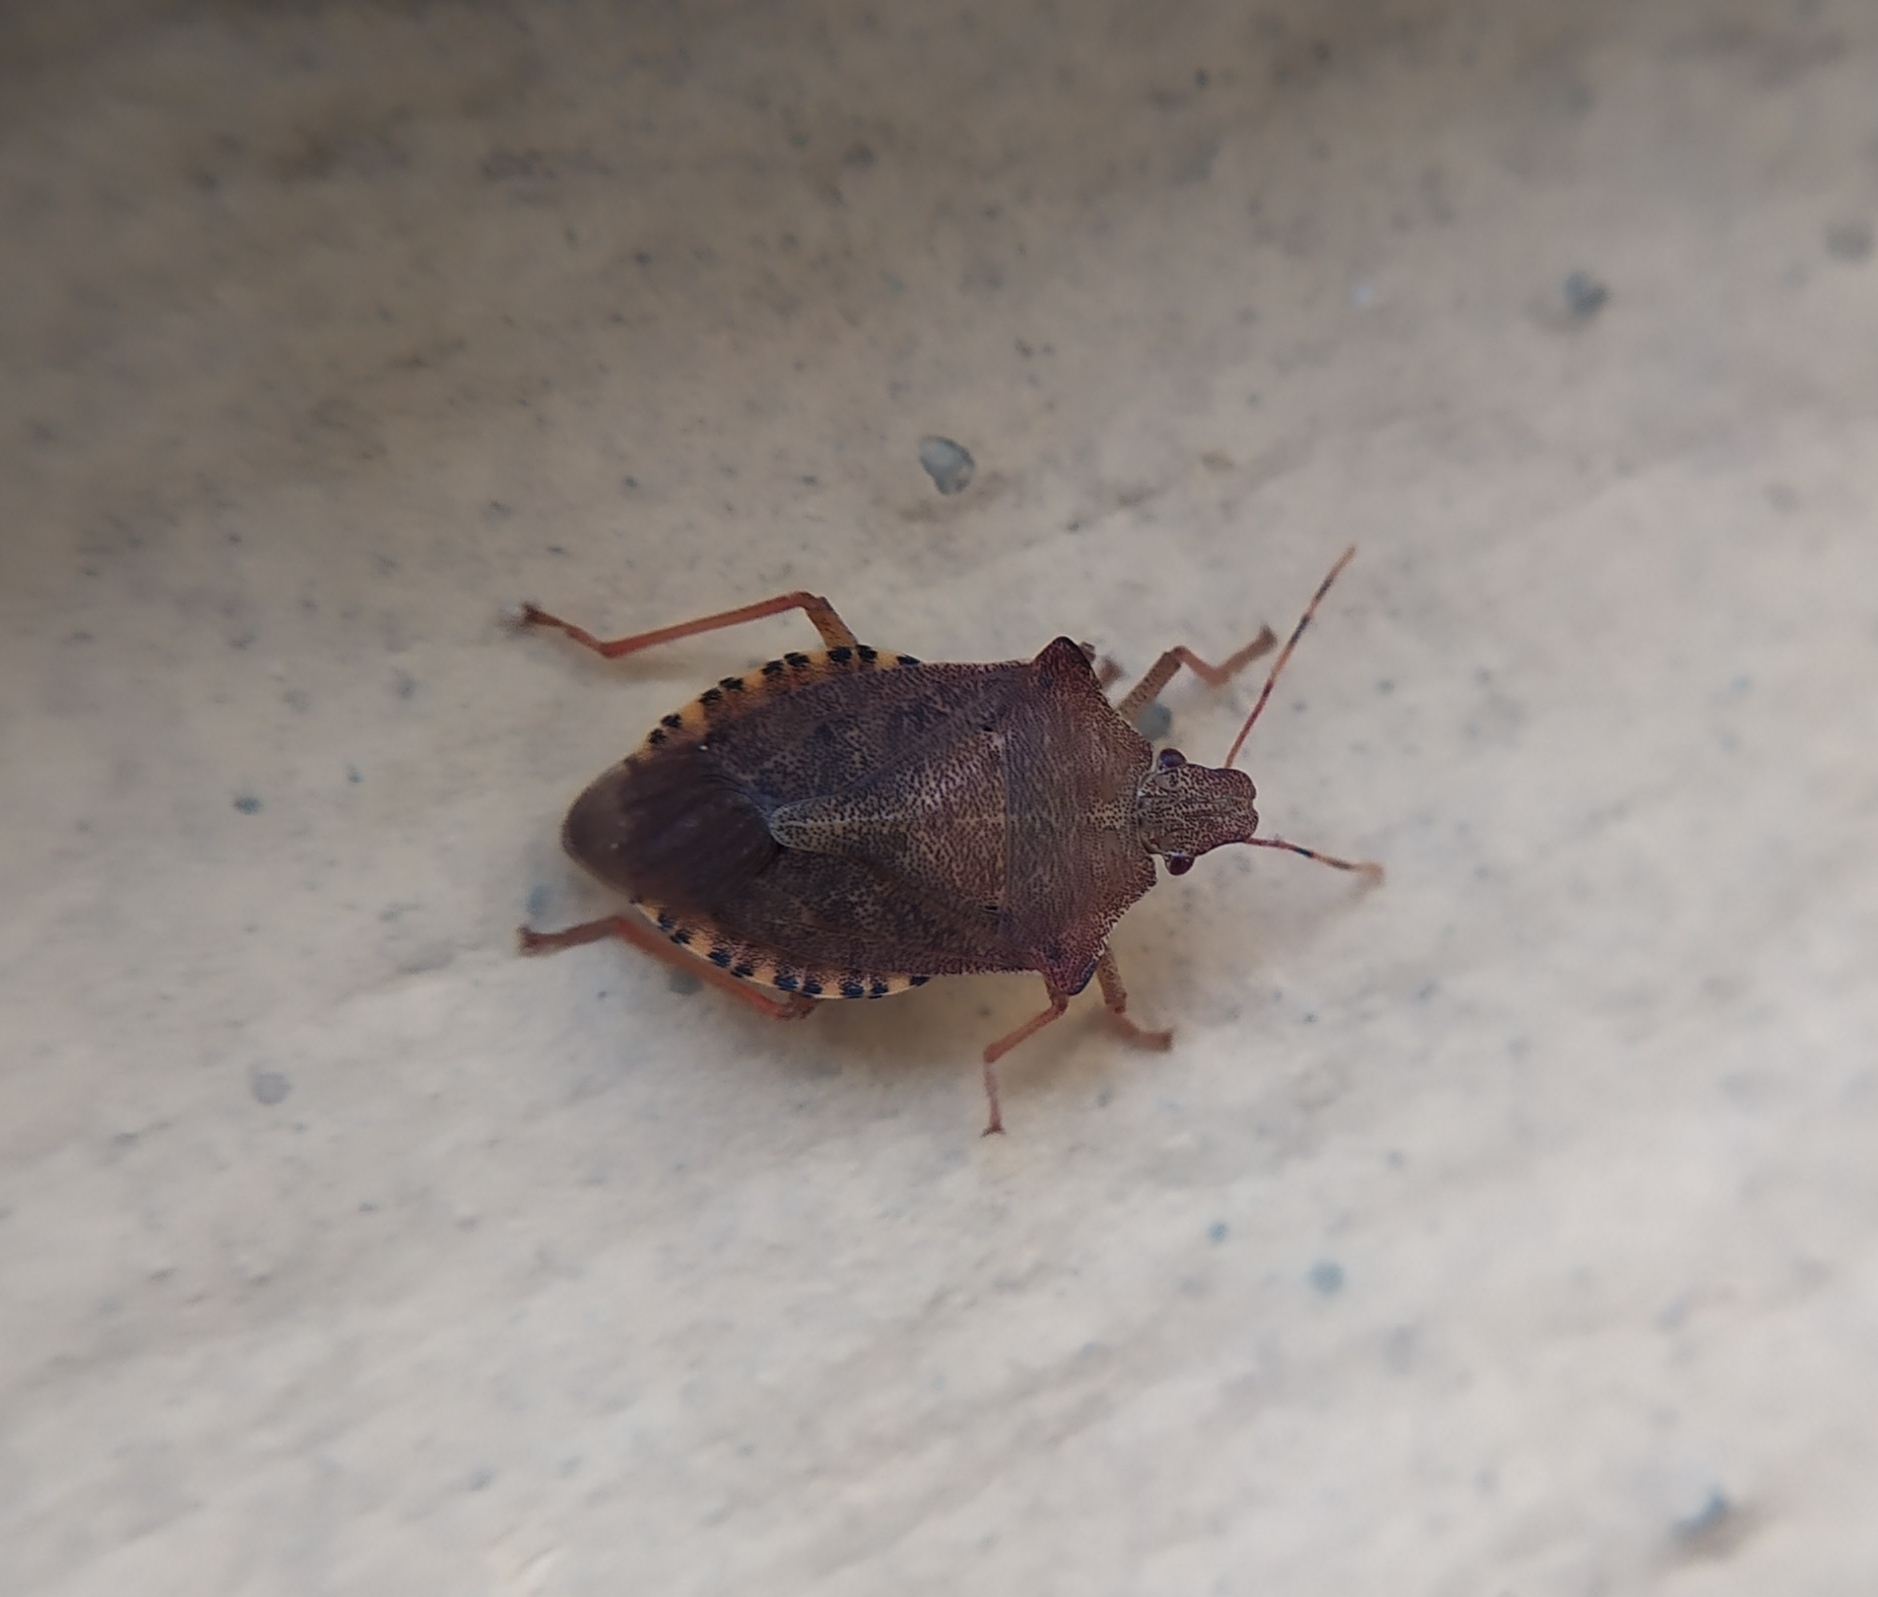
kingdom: Animalia
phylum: Arthropoda
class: Insecta
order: Hemiptera
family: Pentatomidae
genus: Arma
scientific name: Arma custos
